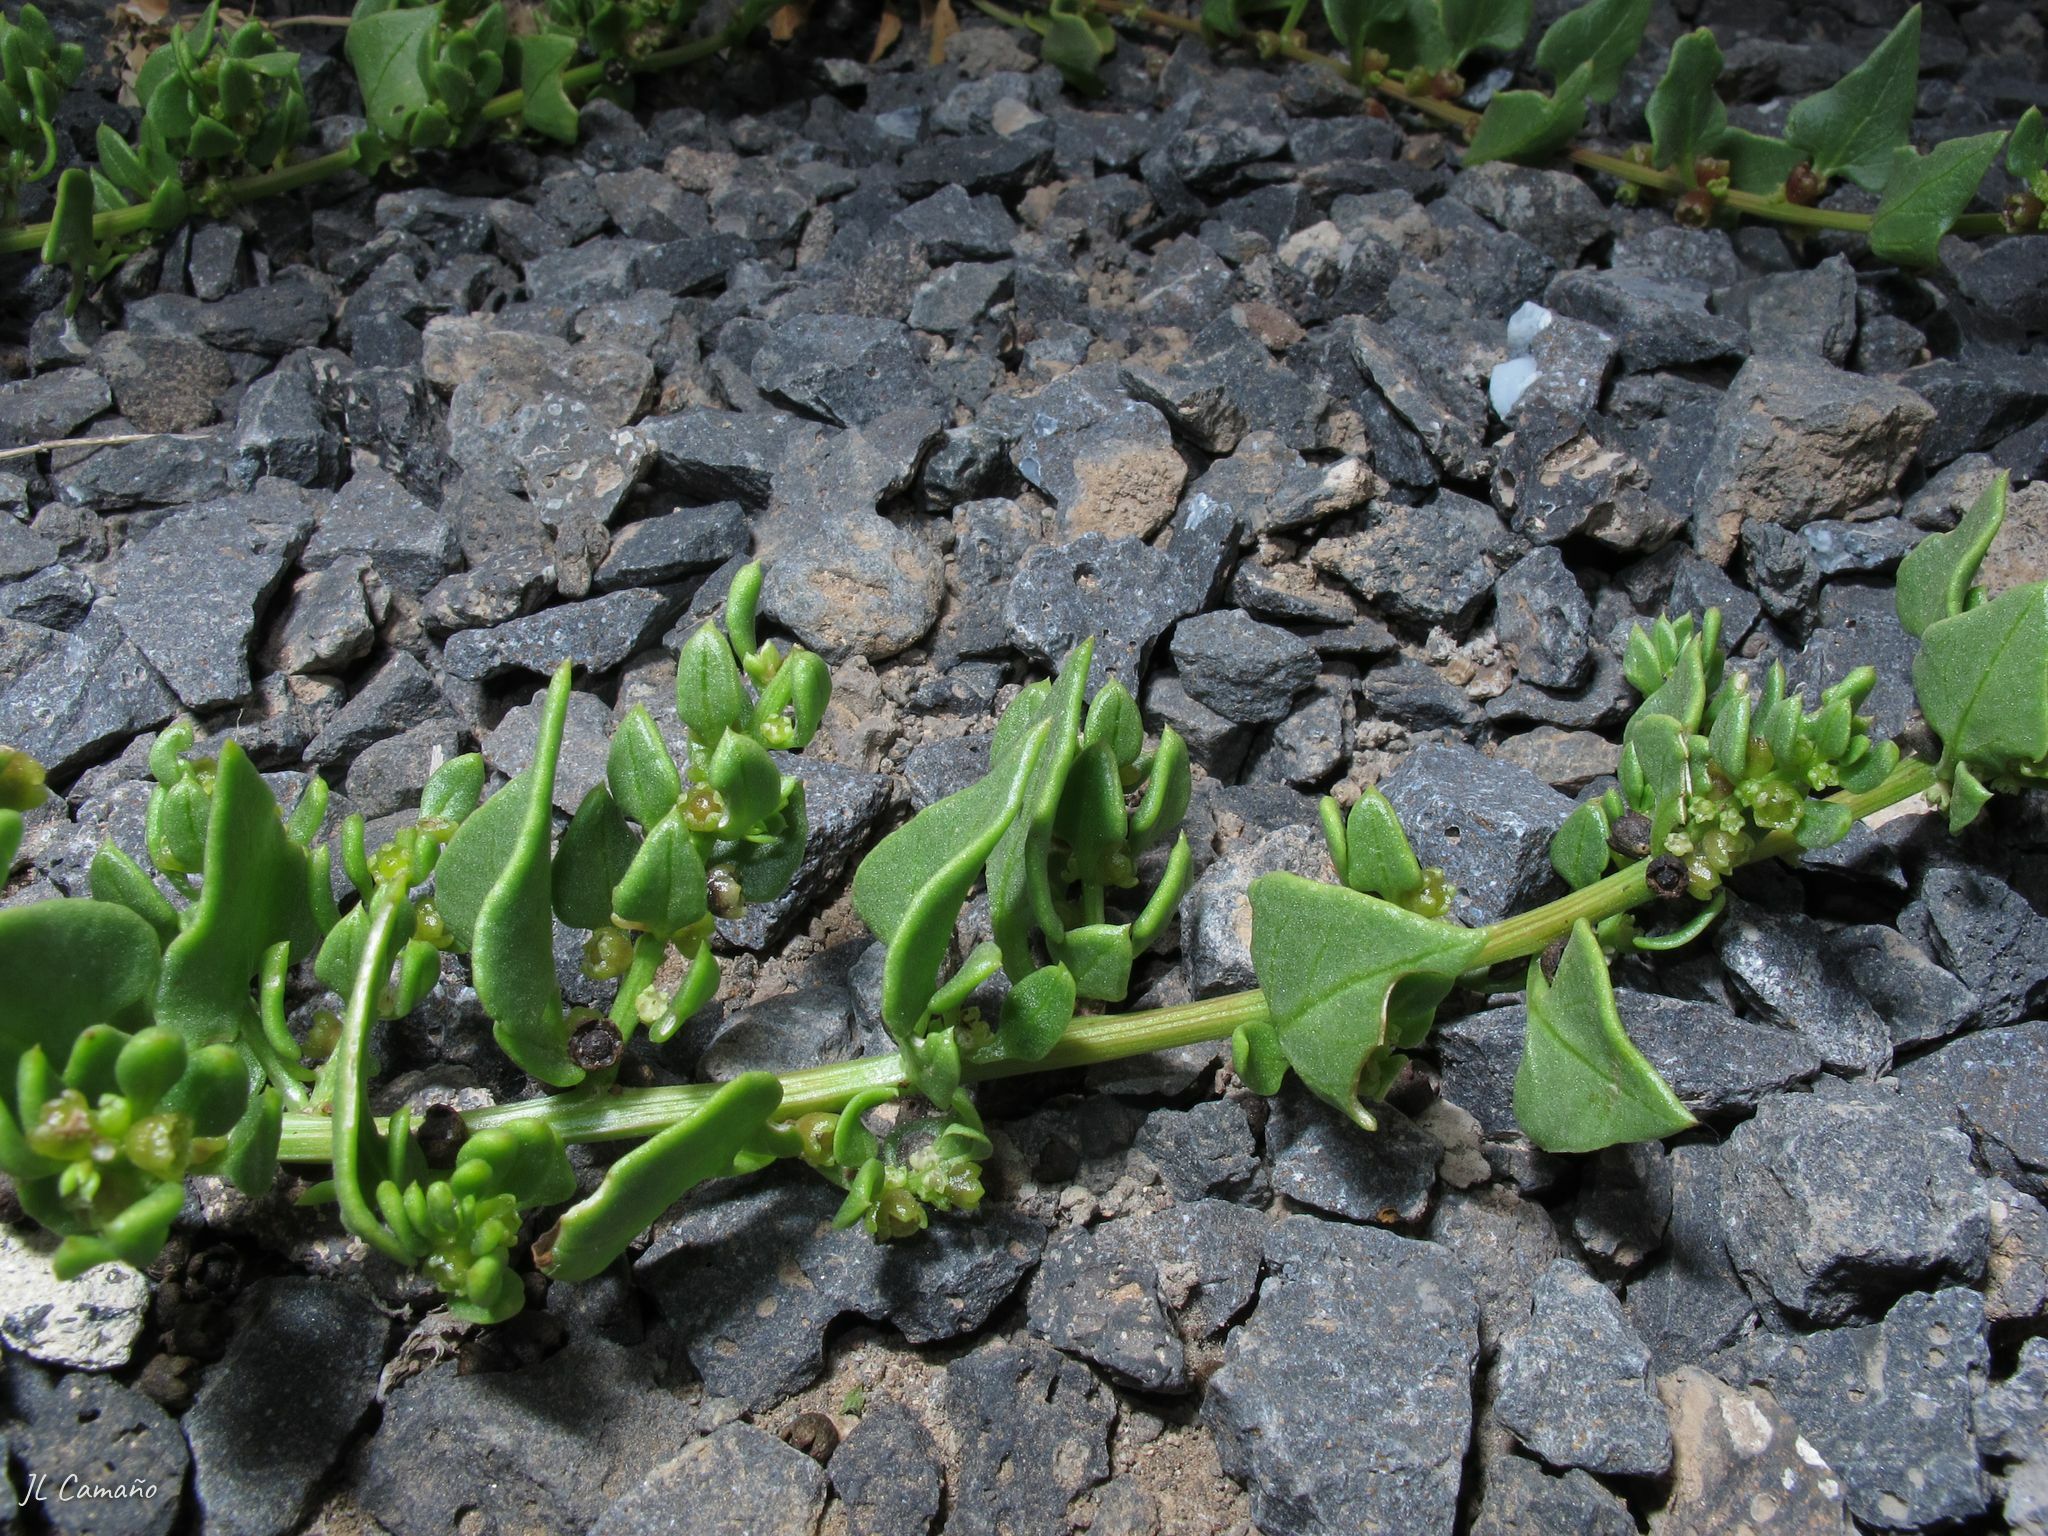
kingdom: Plantae
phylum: Tracheophyta
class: Magnoliopsida
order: Caryophyllales
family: Amaranthaceae
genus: Patellifolia
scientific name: Patellifolia procumbens
